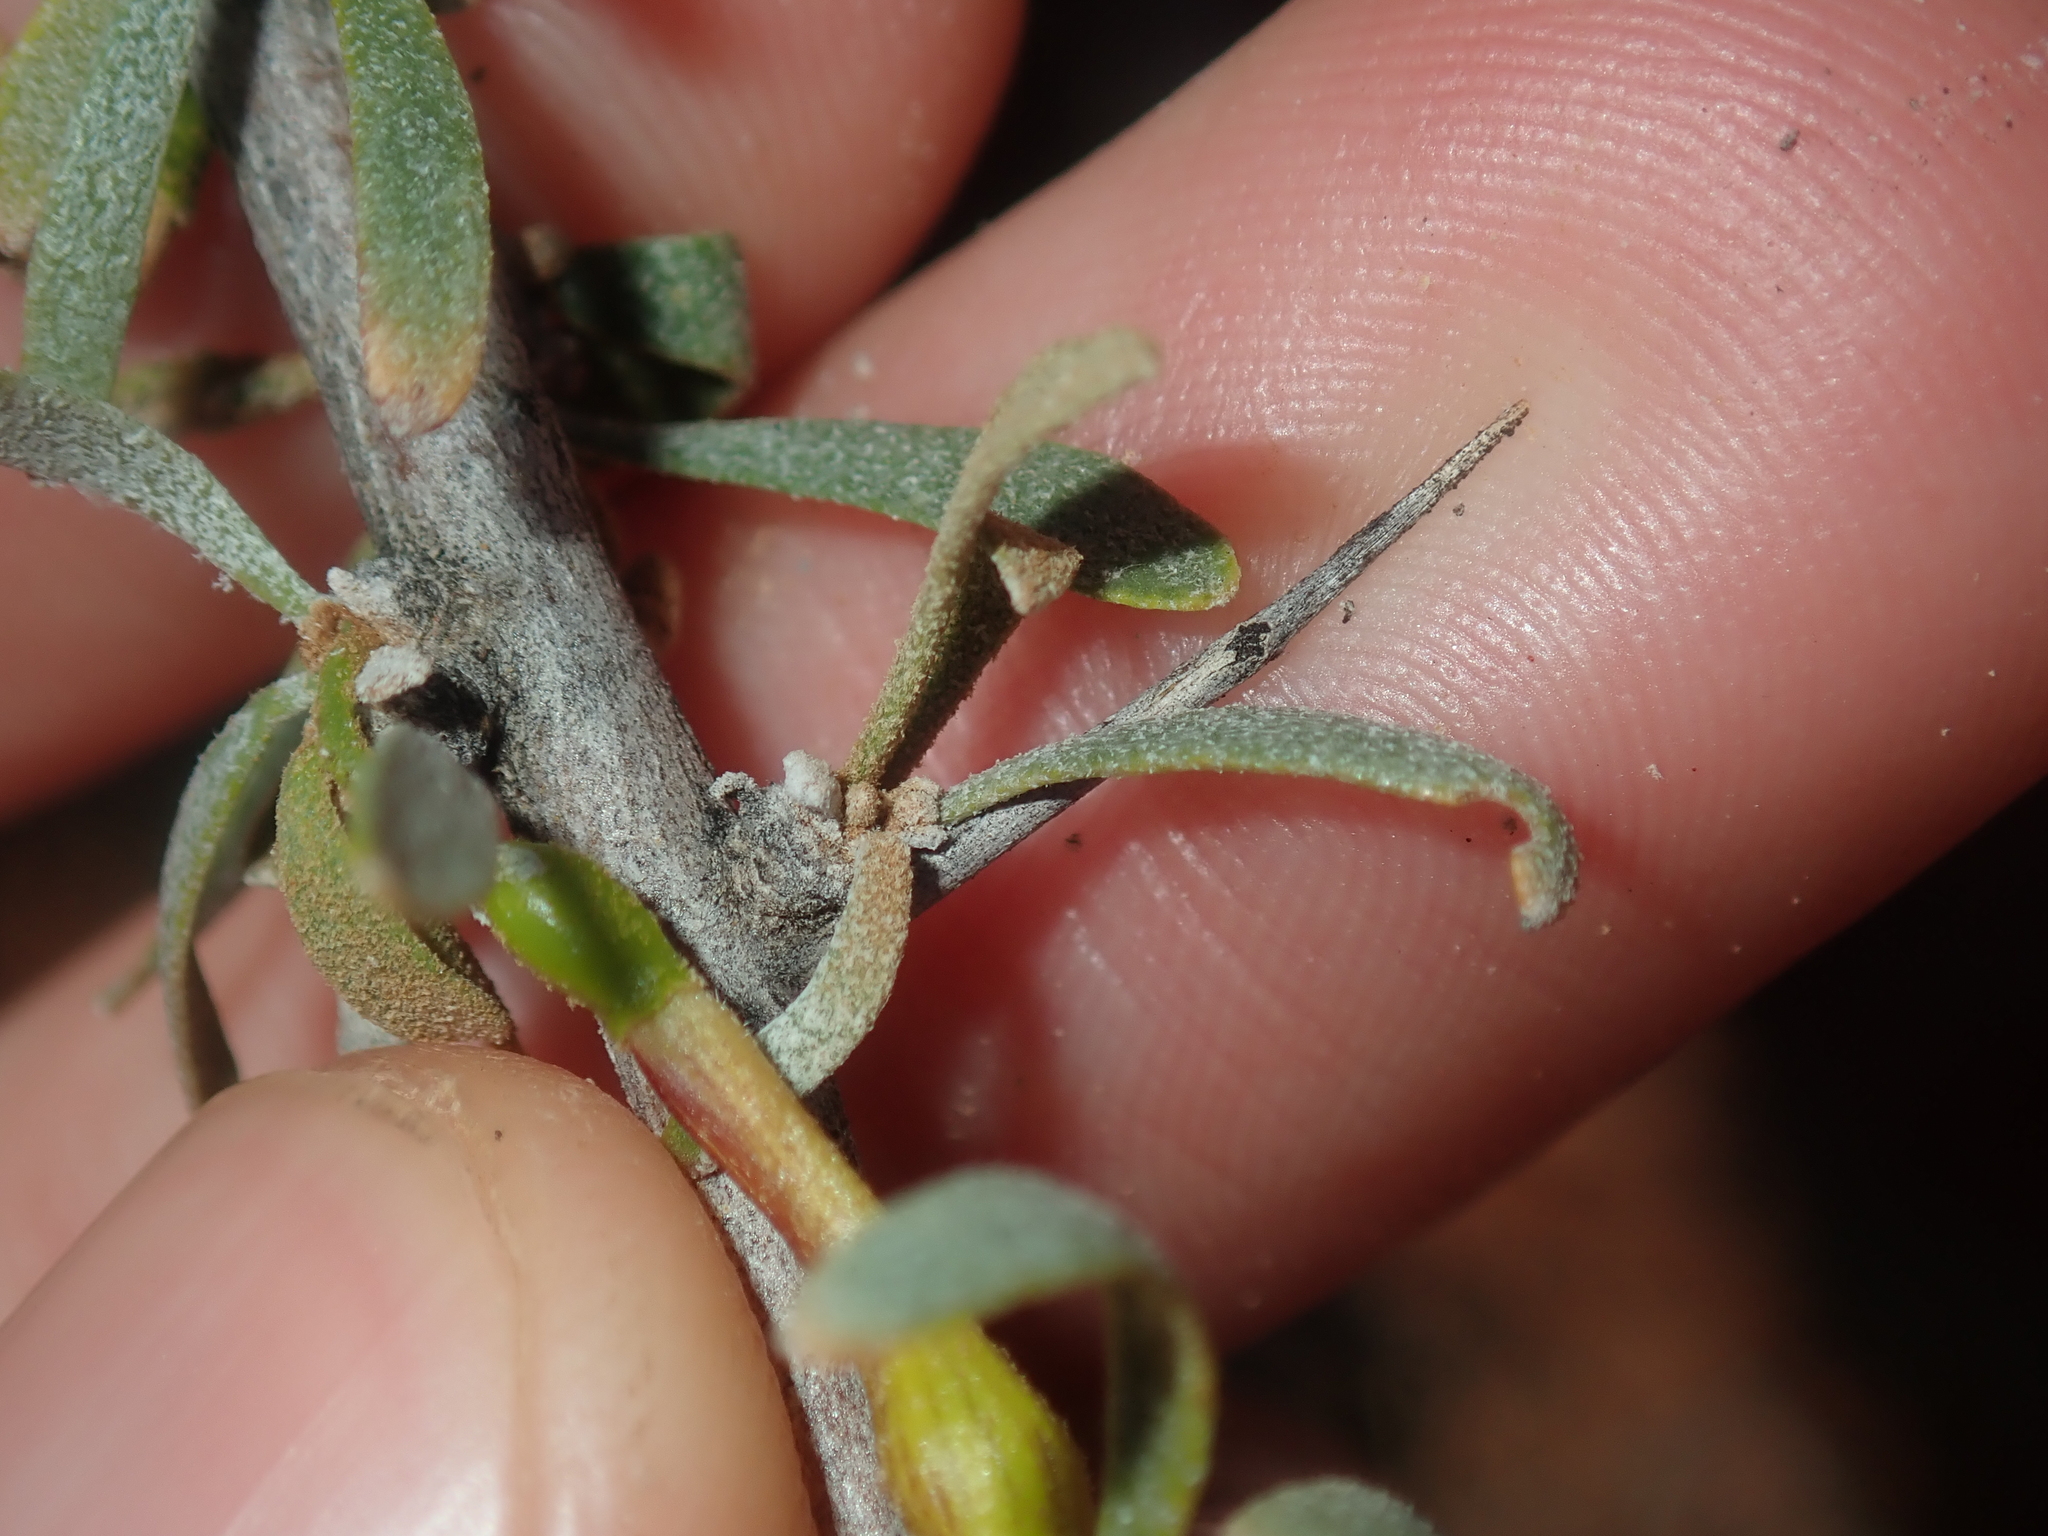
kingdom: Plantae
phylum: Tracheophyta
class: Magnoliopsida
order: Asterales
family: Goodeniaceae
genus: Scaevola
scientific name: Scaevola spinescens
